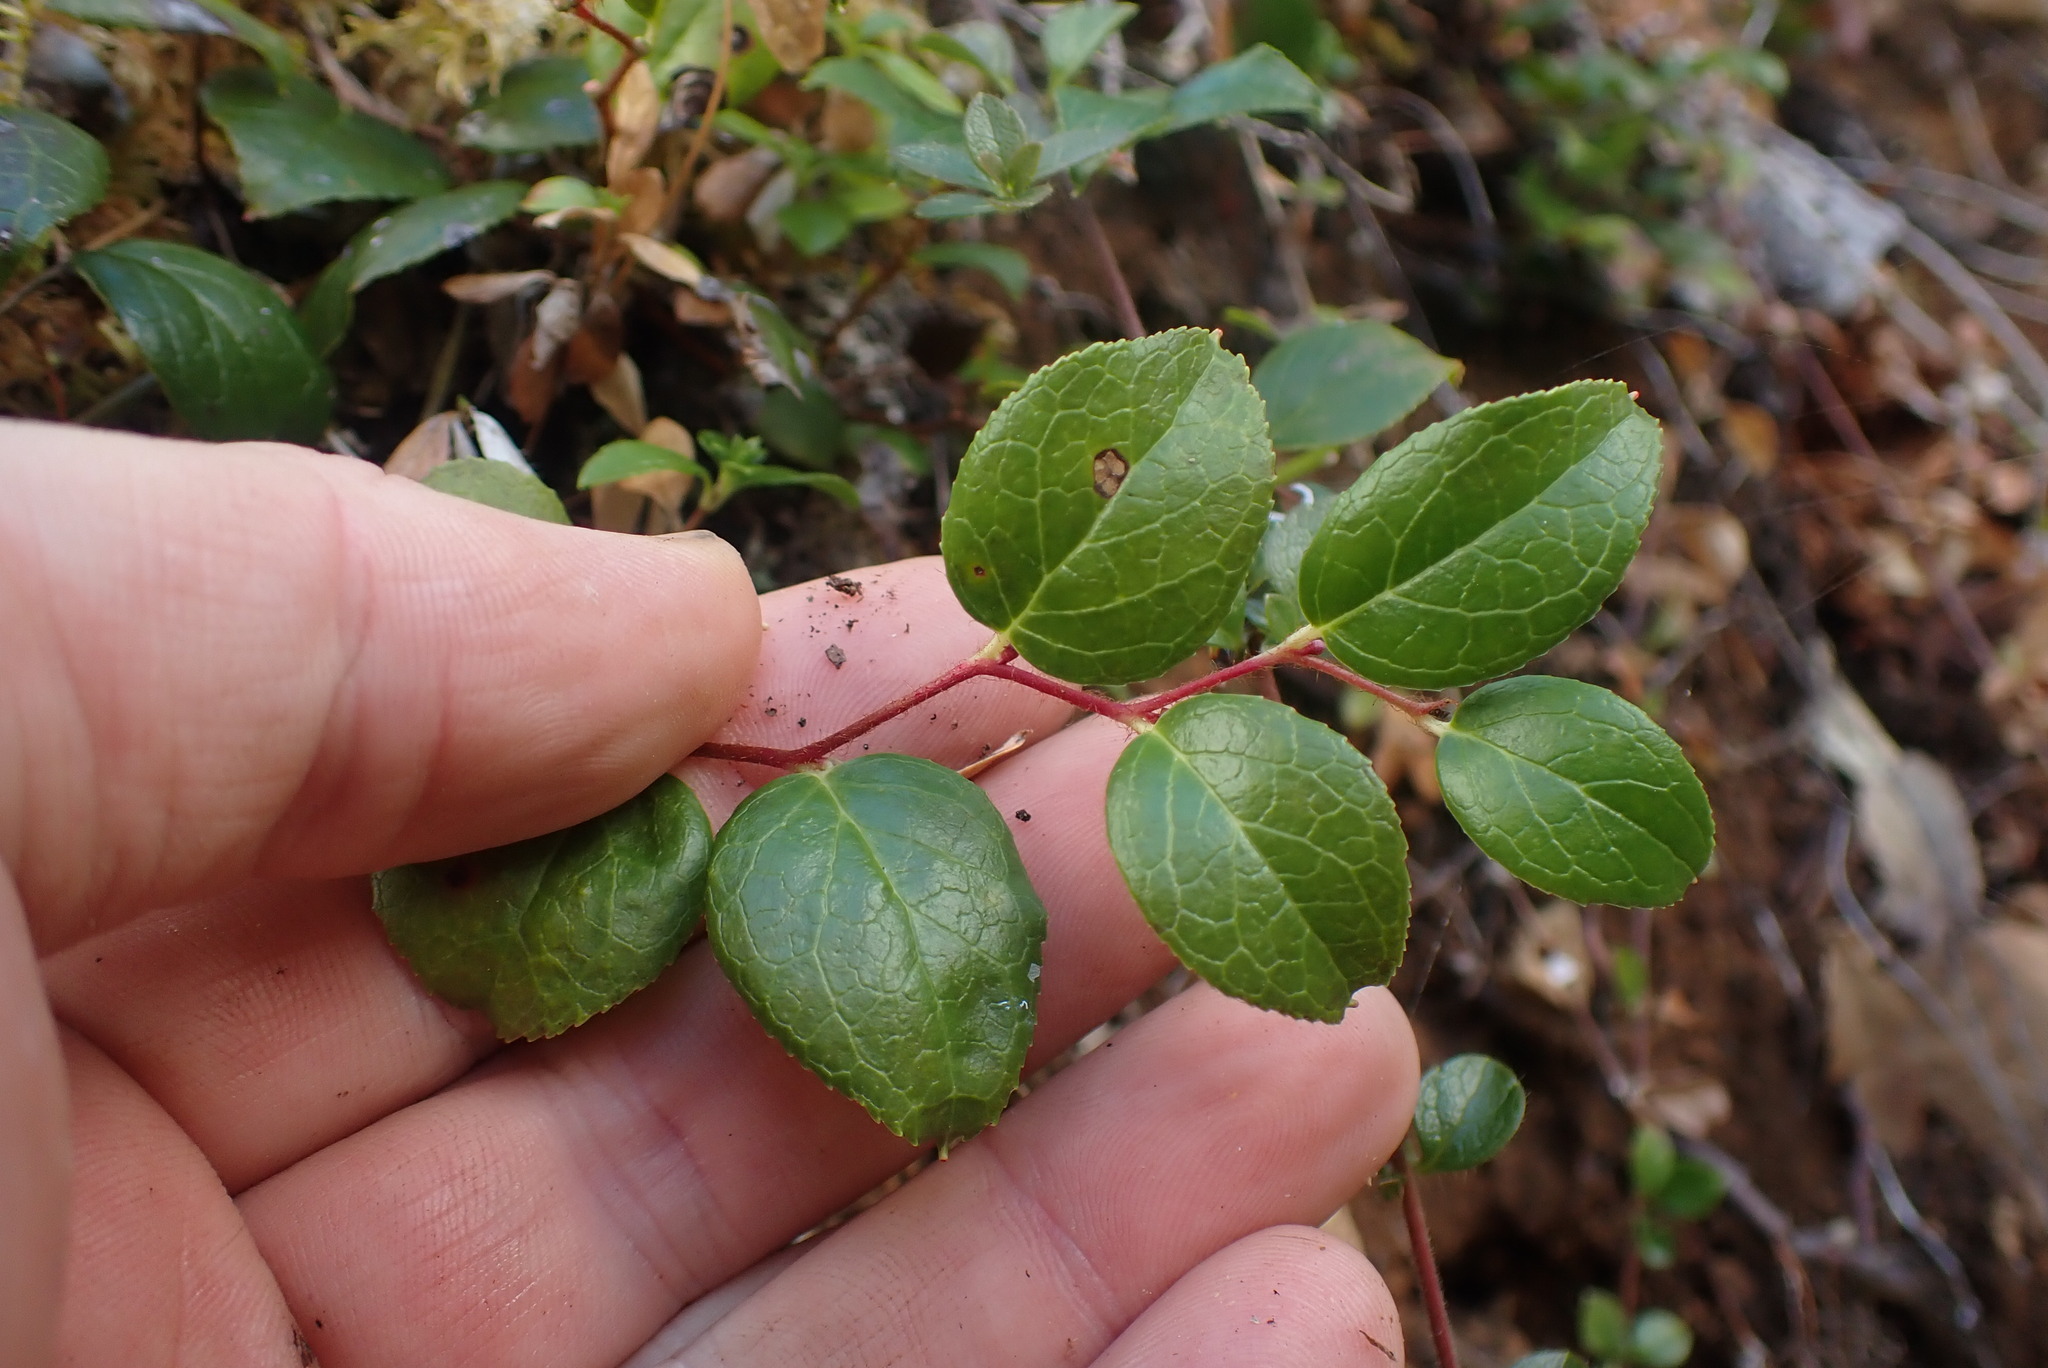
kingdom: Plantae
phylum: Tracheophyta
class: Magnoliopsida
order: Ericales
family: Ericaceae
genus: Gaultheria
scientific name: Gaultheria ovatifolia
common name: Oregon wintergreen
